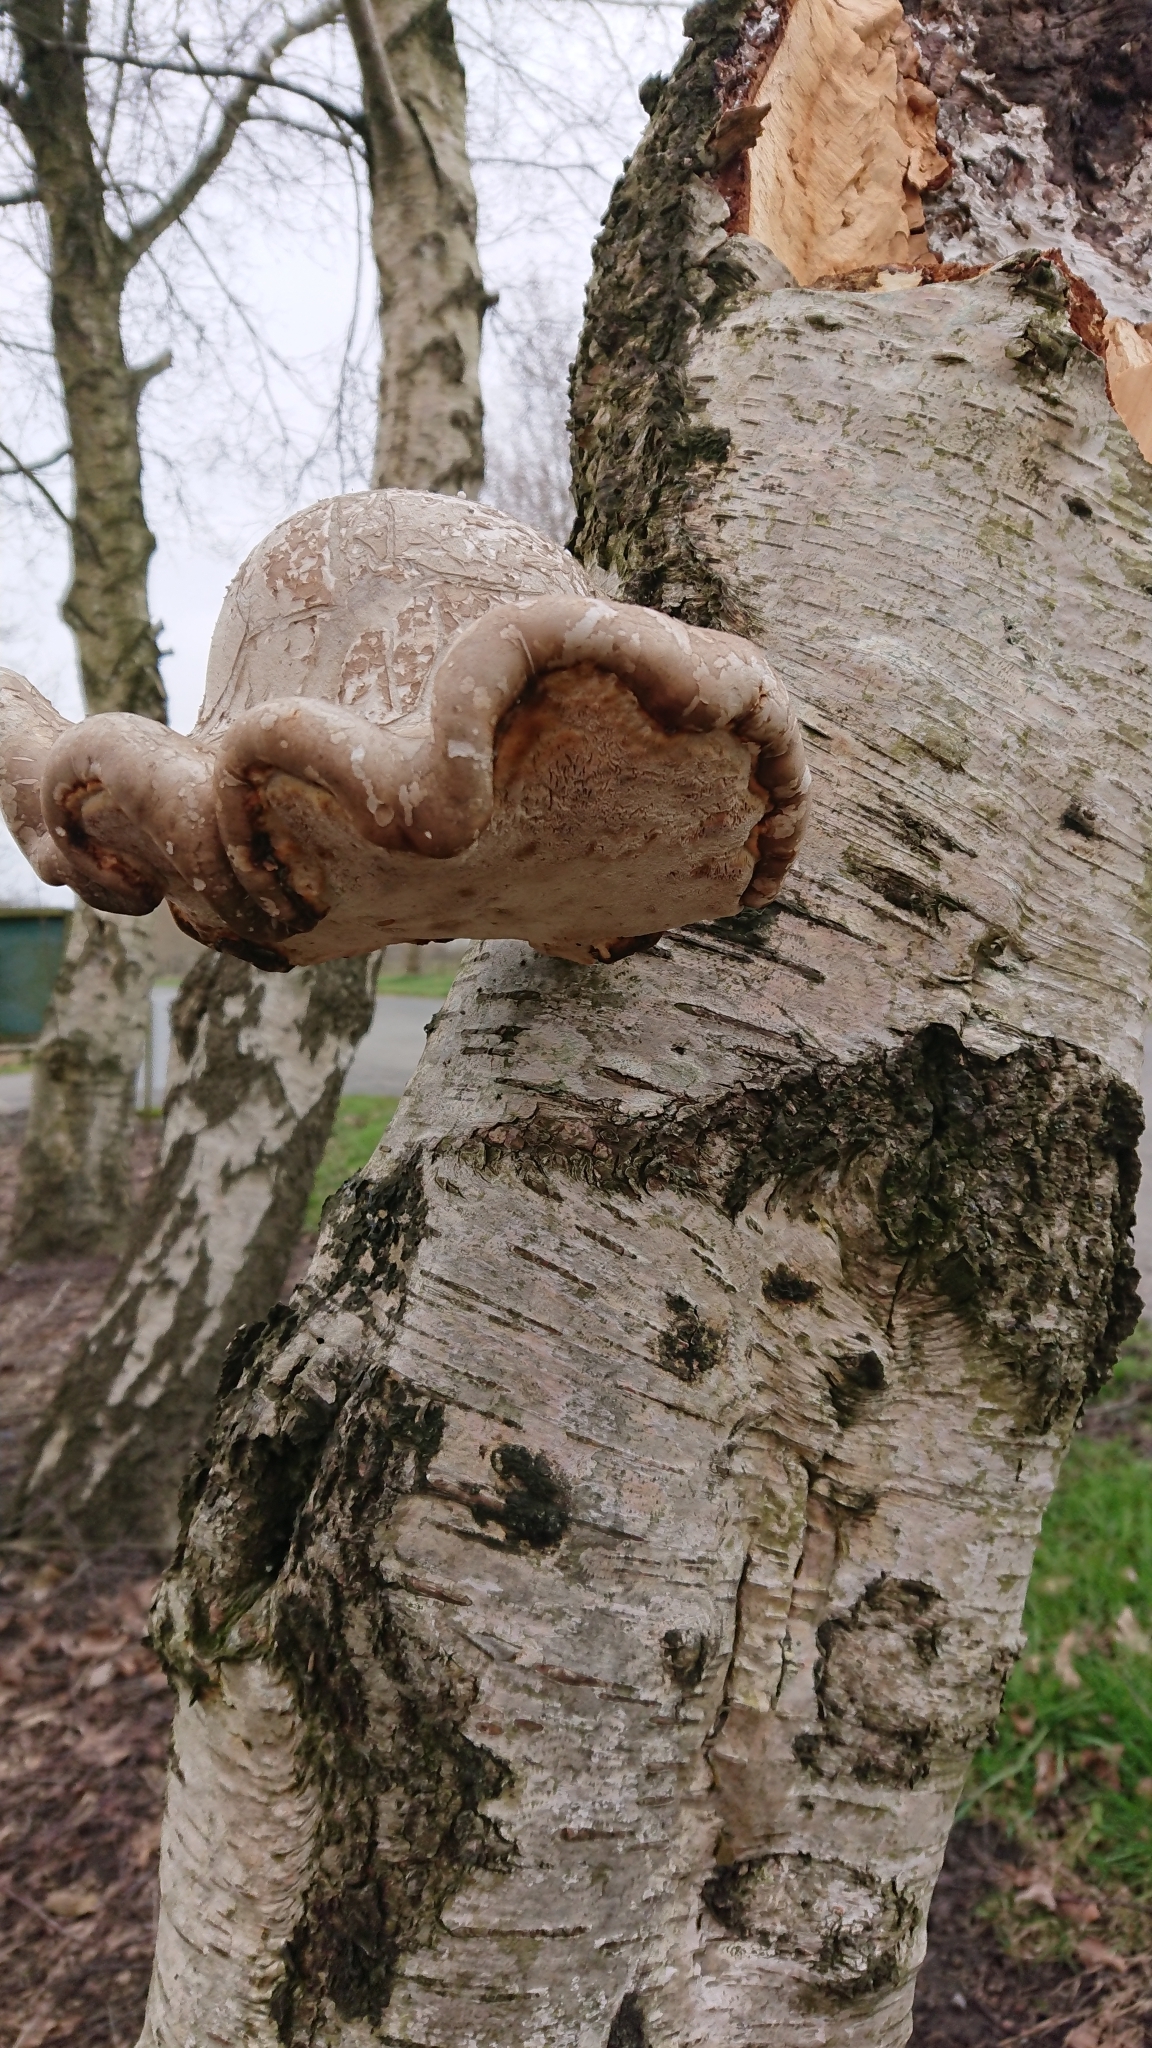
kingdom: Fungi
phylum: Basidiomycota
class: Agaricomycetes
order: Polyporales
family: Fomitopsidaceae
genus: Fomitopsis
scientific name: Fomitopsis betulina
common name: Birch polypore
